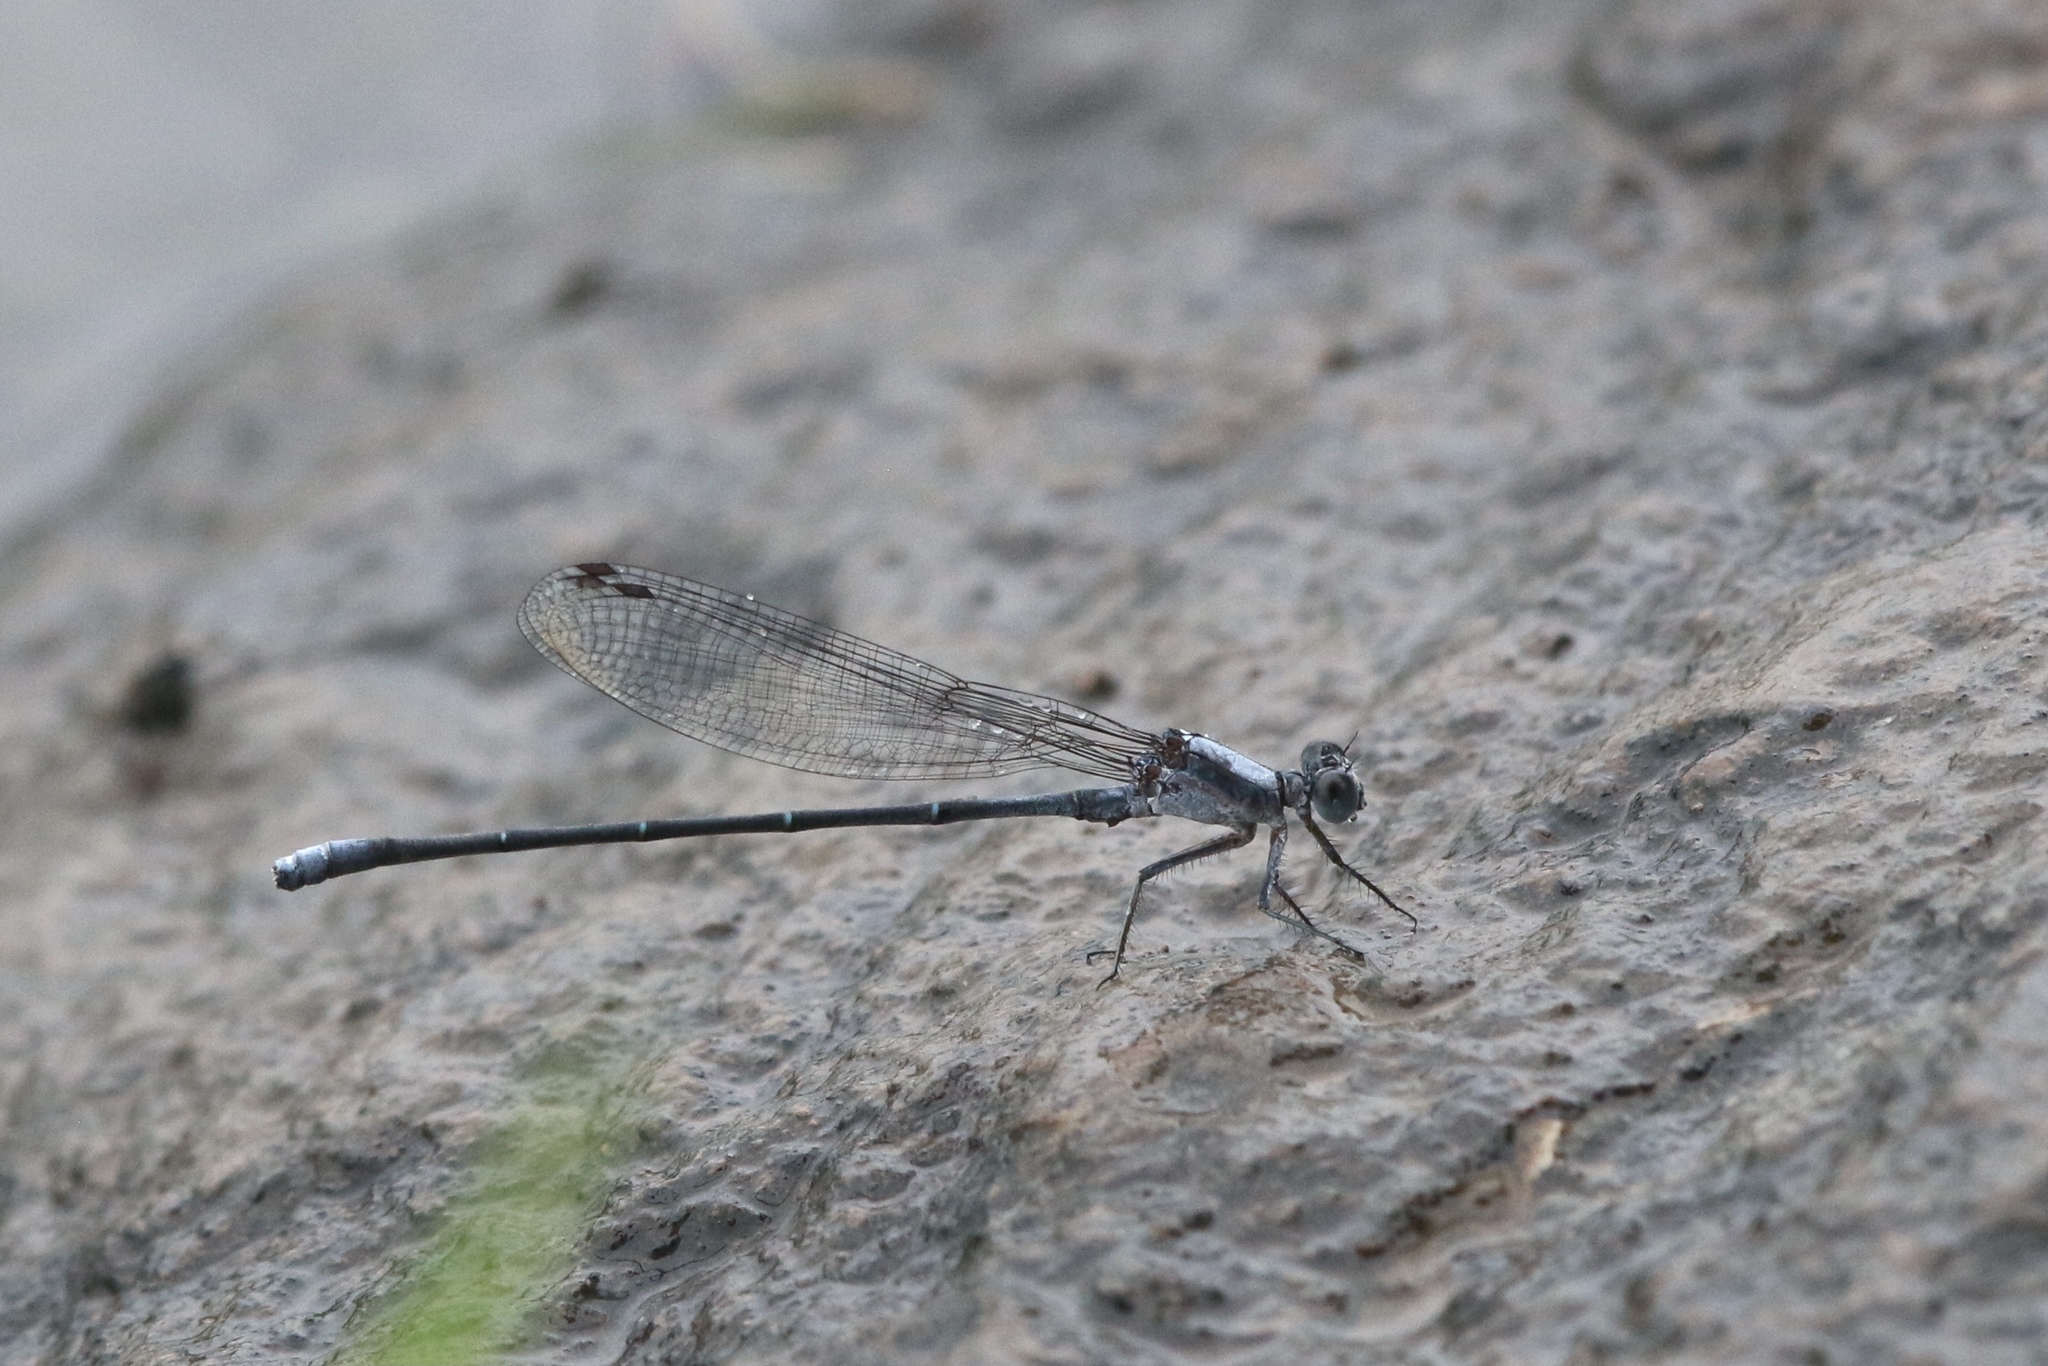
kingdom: Animalia
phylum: Arthropoda
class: Insecta
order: Odonata
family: Coenagrionidae
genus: Argia
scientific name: Argia moesta
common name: Powdered dancer
